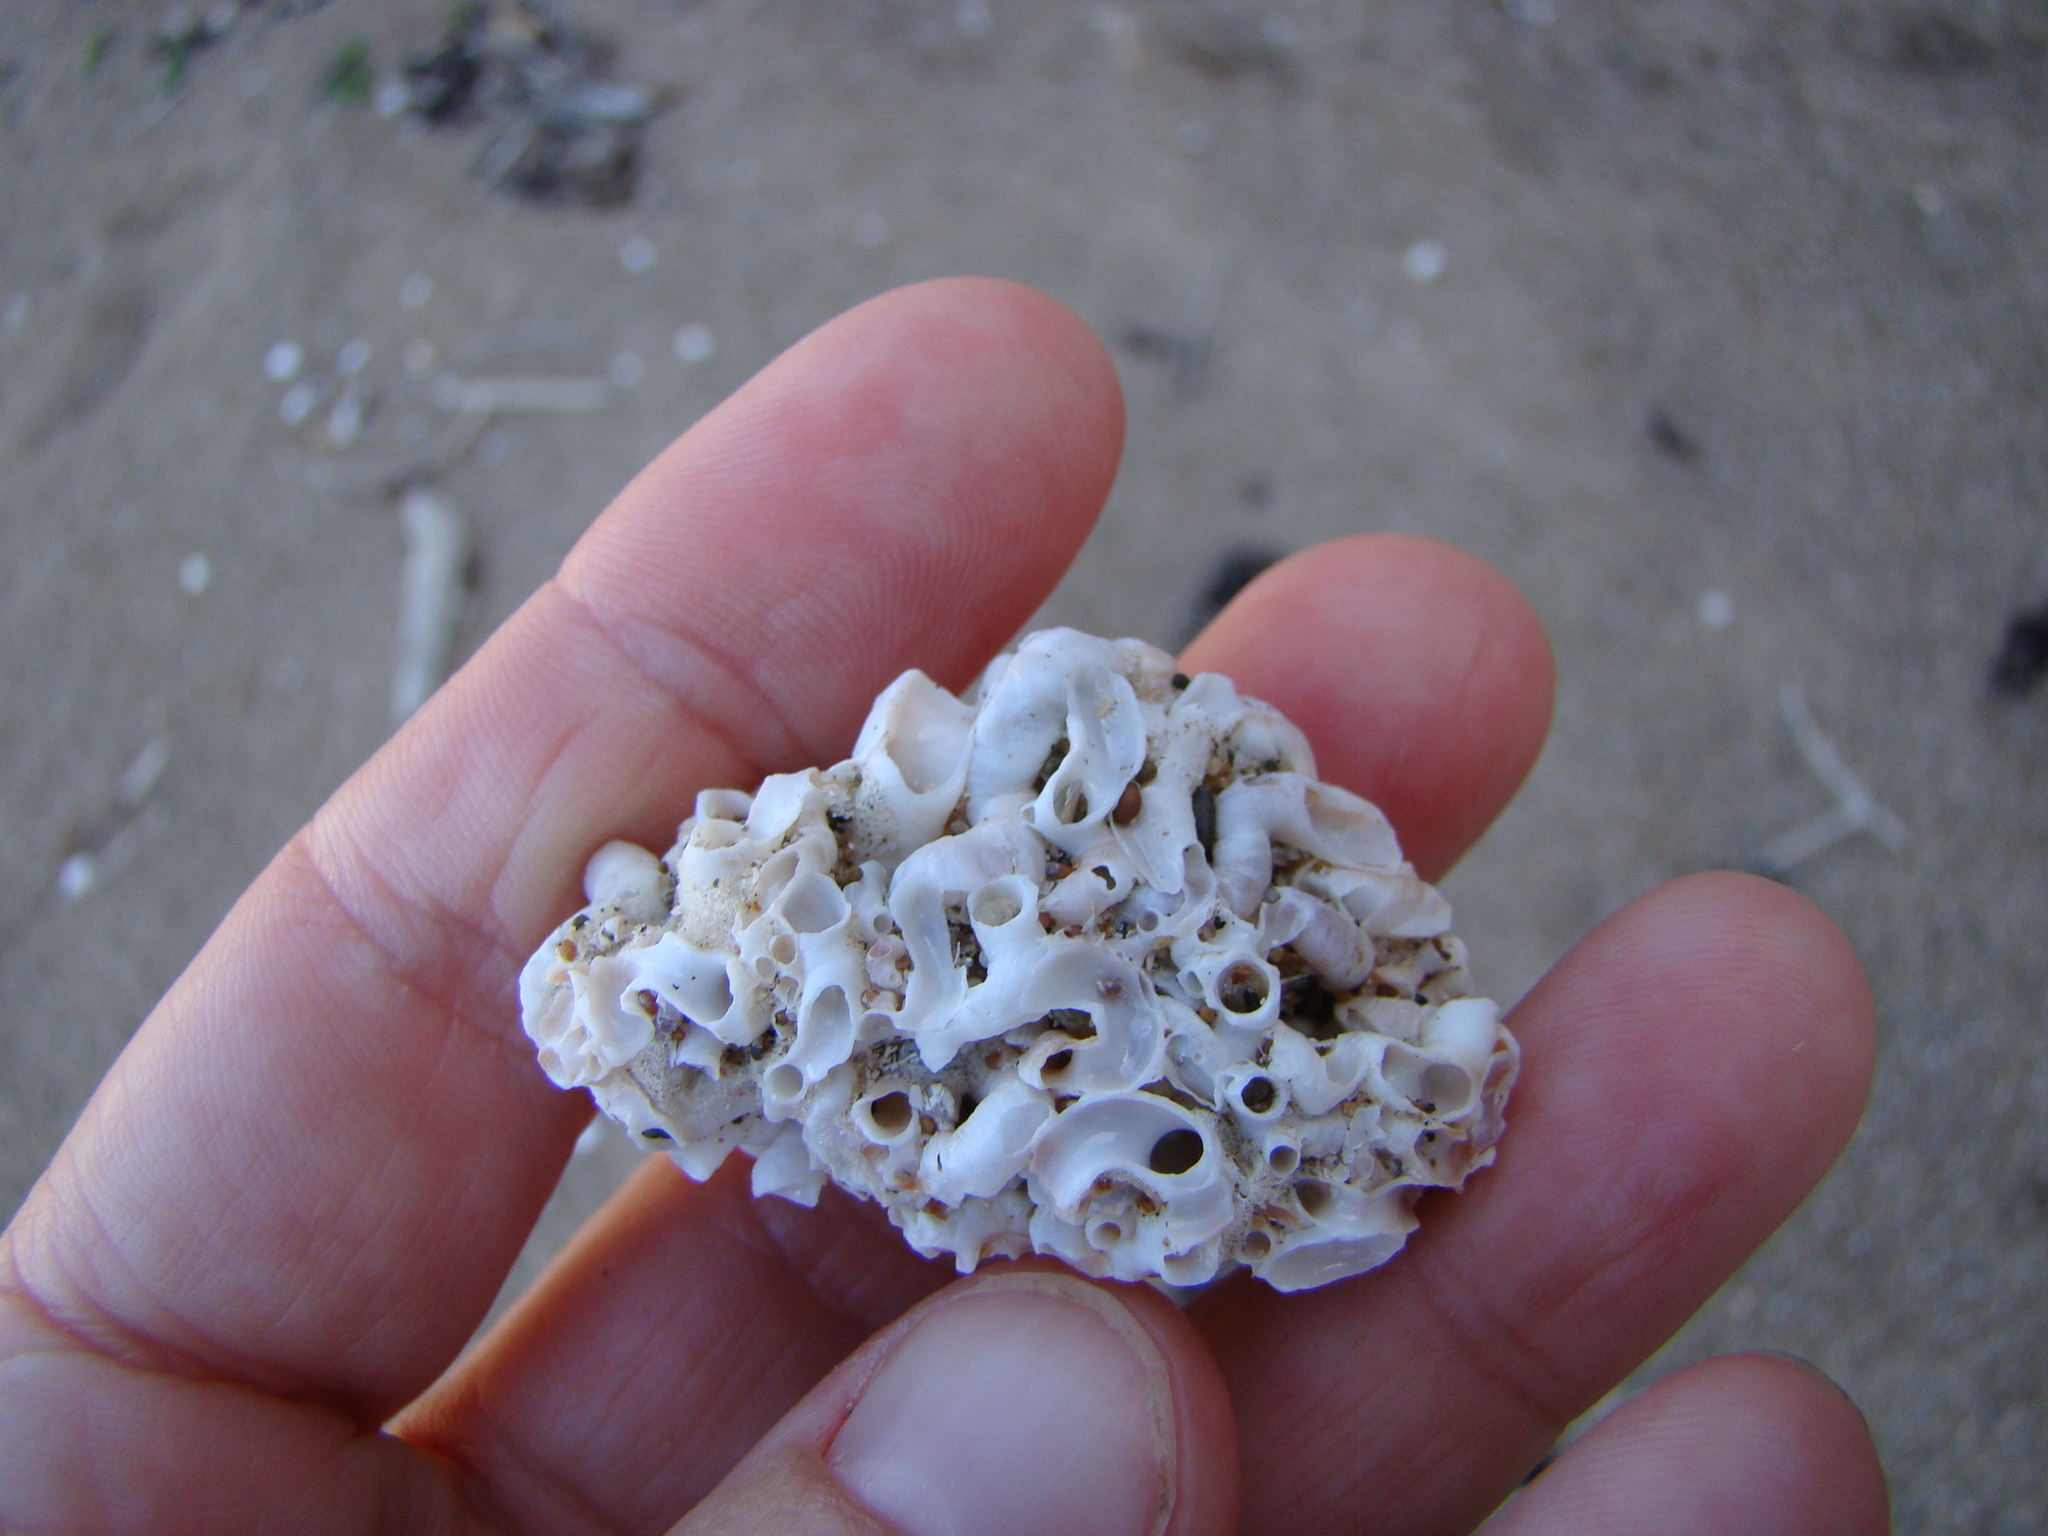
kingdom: Animalia
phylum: Mollusca
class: Gastropoda
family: Siliquariidae
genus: Stephopoma
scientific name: Stephopoma roseum
